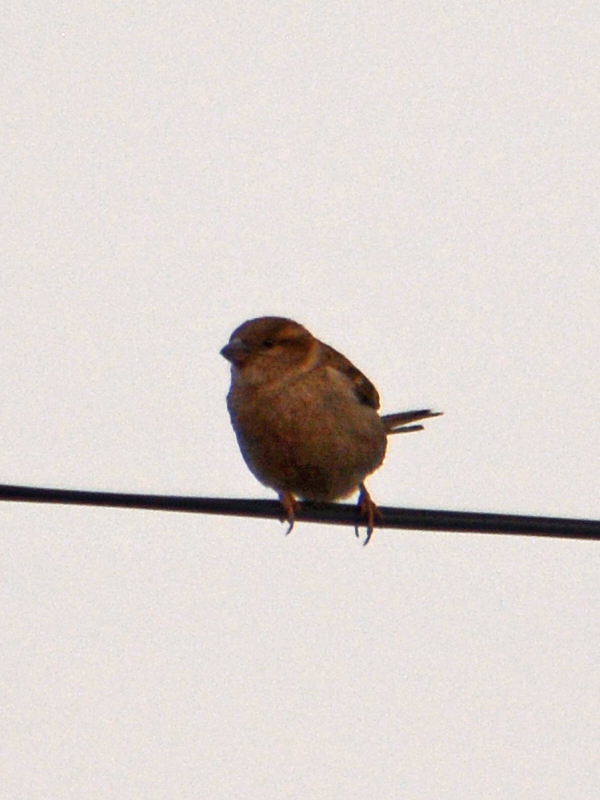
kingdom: Animalia
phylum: Chordata
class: Aves
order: Passeriformes
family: Passeridae
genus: Passer
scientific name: Passer domesticus
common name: House sparrow
